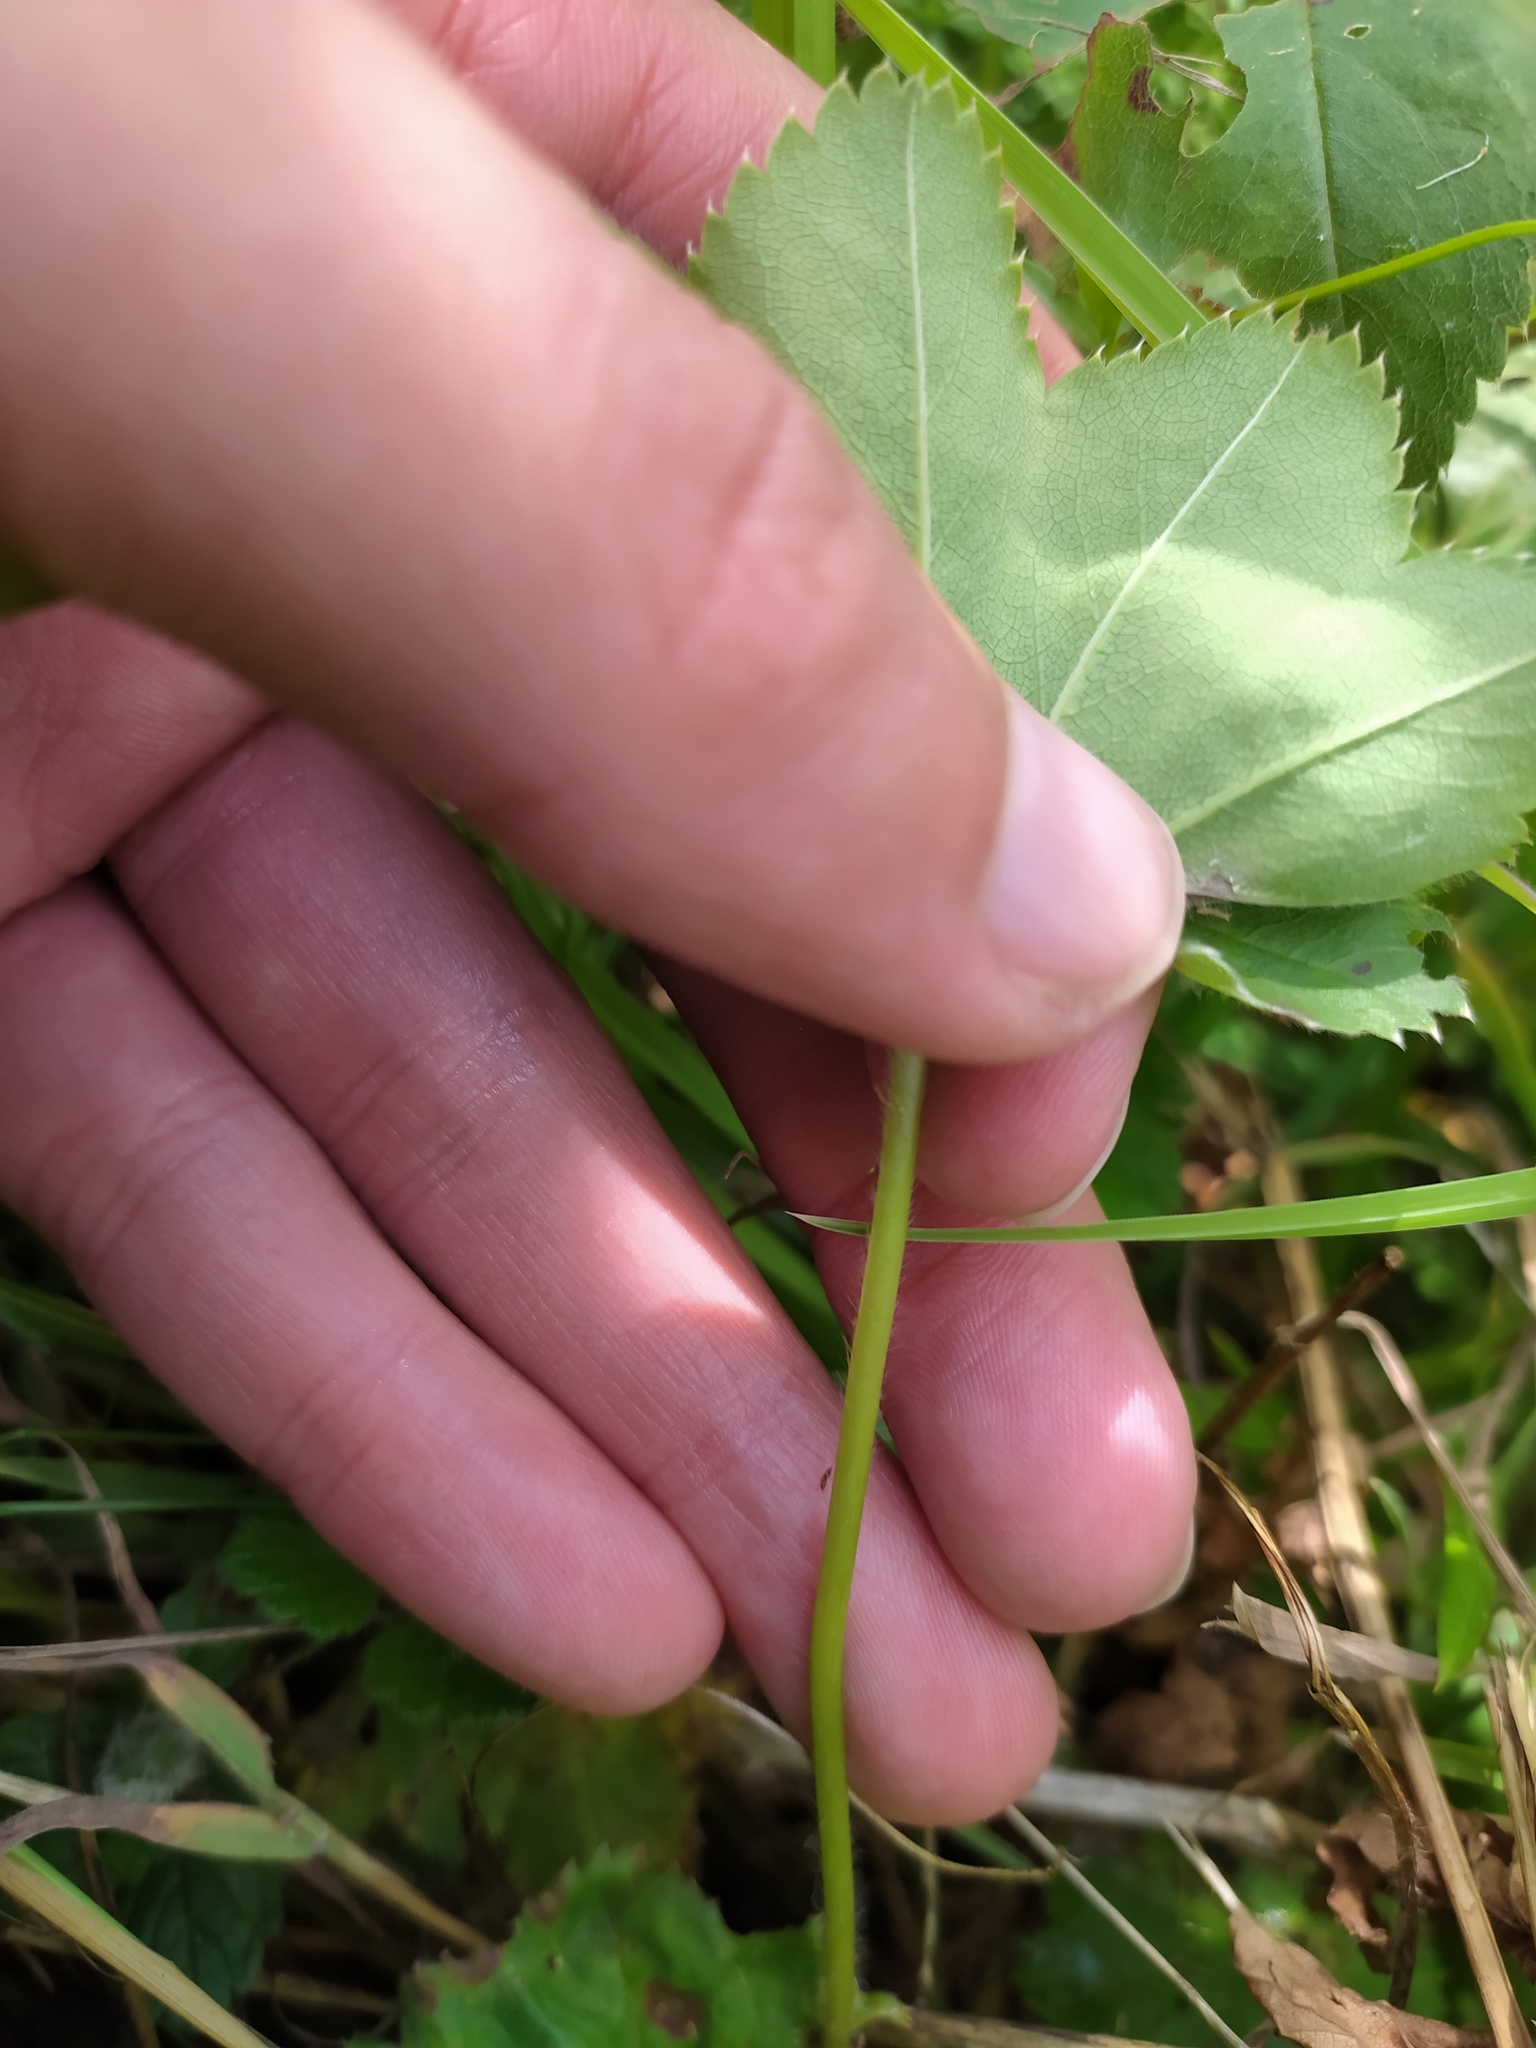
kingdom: Plantae
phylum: Tracheophyta
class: Magnoliopsida
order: Rosales
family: Rosaceae
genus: Alchemilla
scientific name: Alchemilla micans
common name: Gleaming lady's mantle
